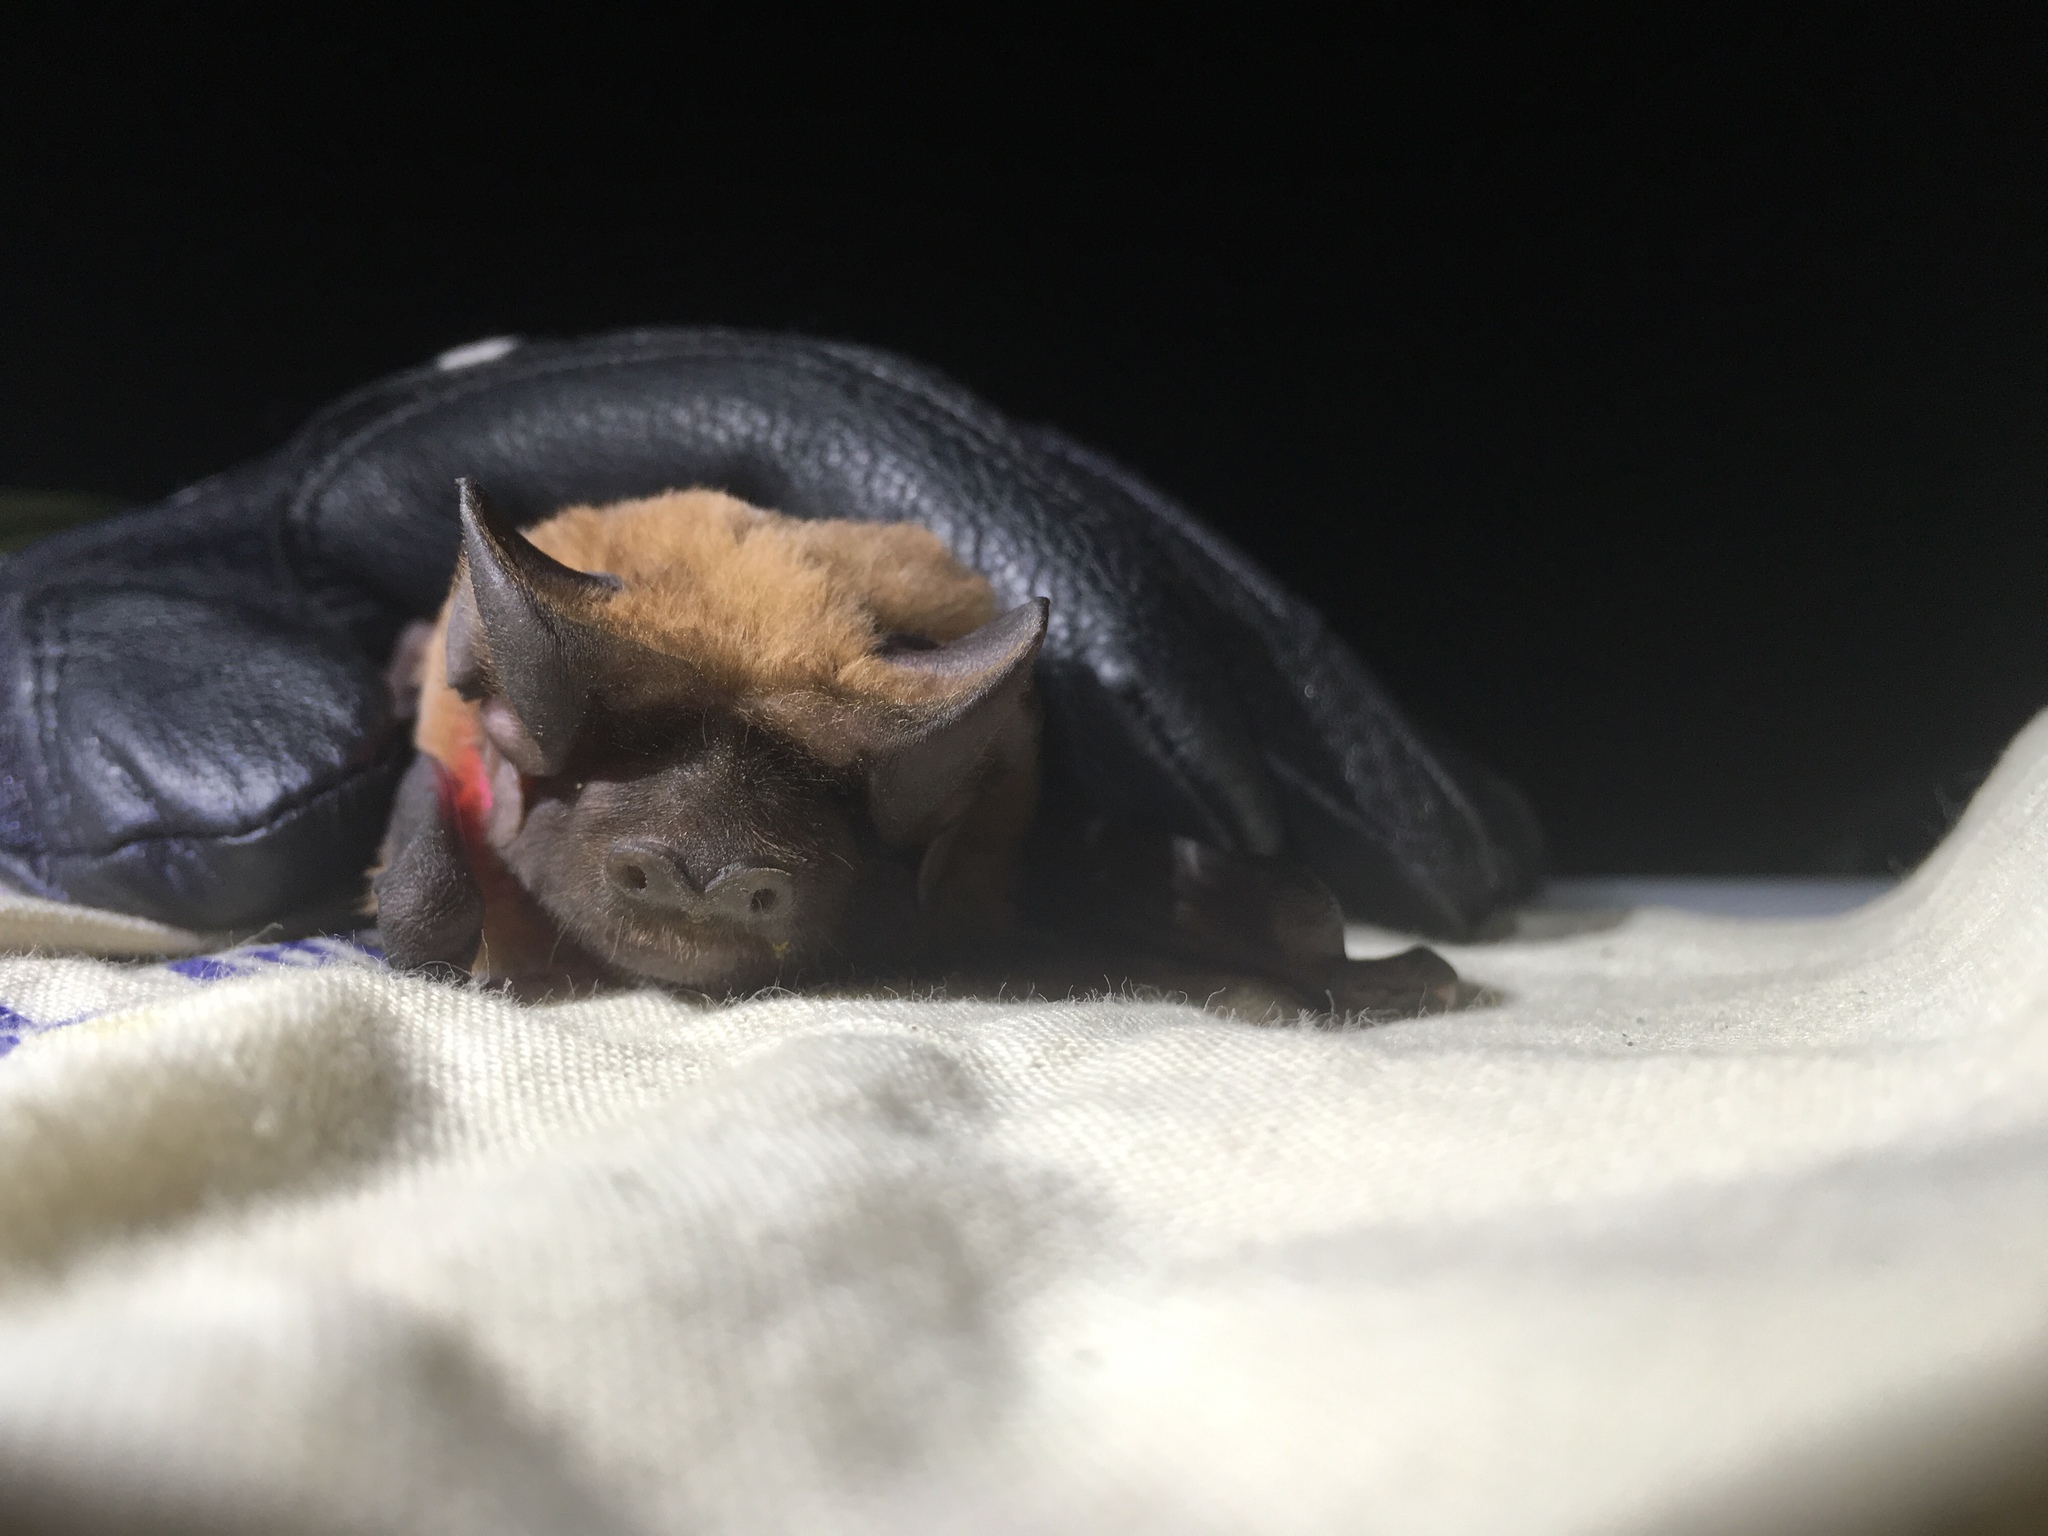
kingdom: Animalia
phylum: Chordata
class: Mammalia
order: Chiroptera
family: Molossidae
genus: Eumops
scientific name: Eumops floridanus
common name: Florida bonneted bat
